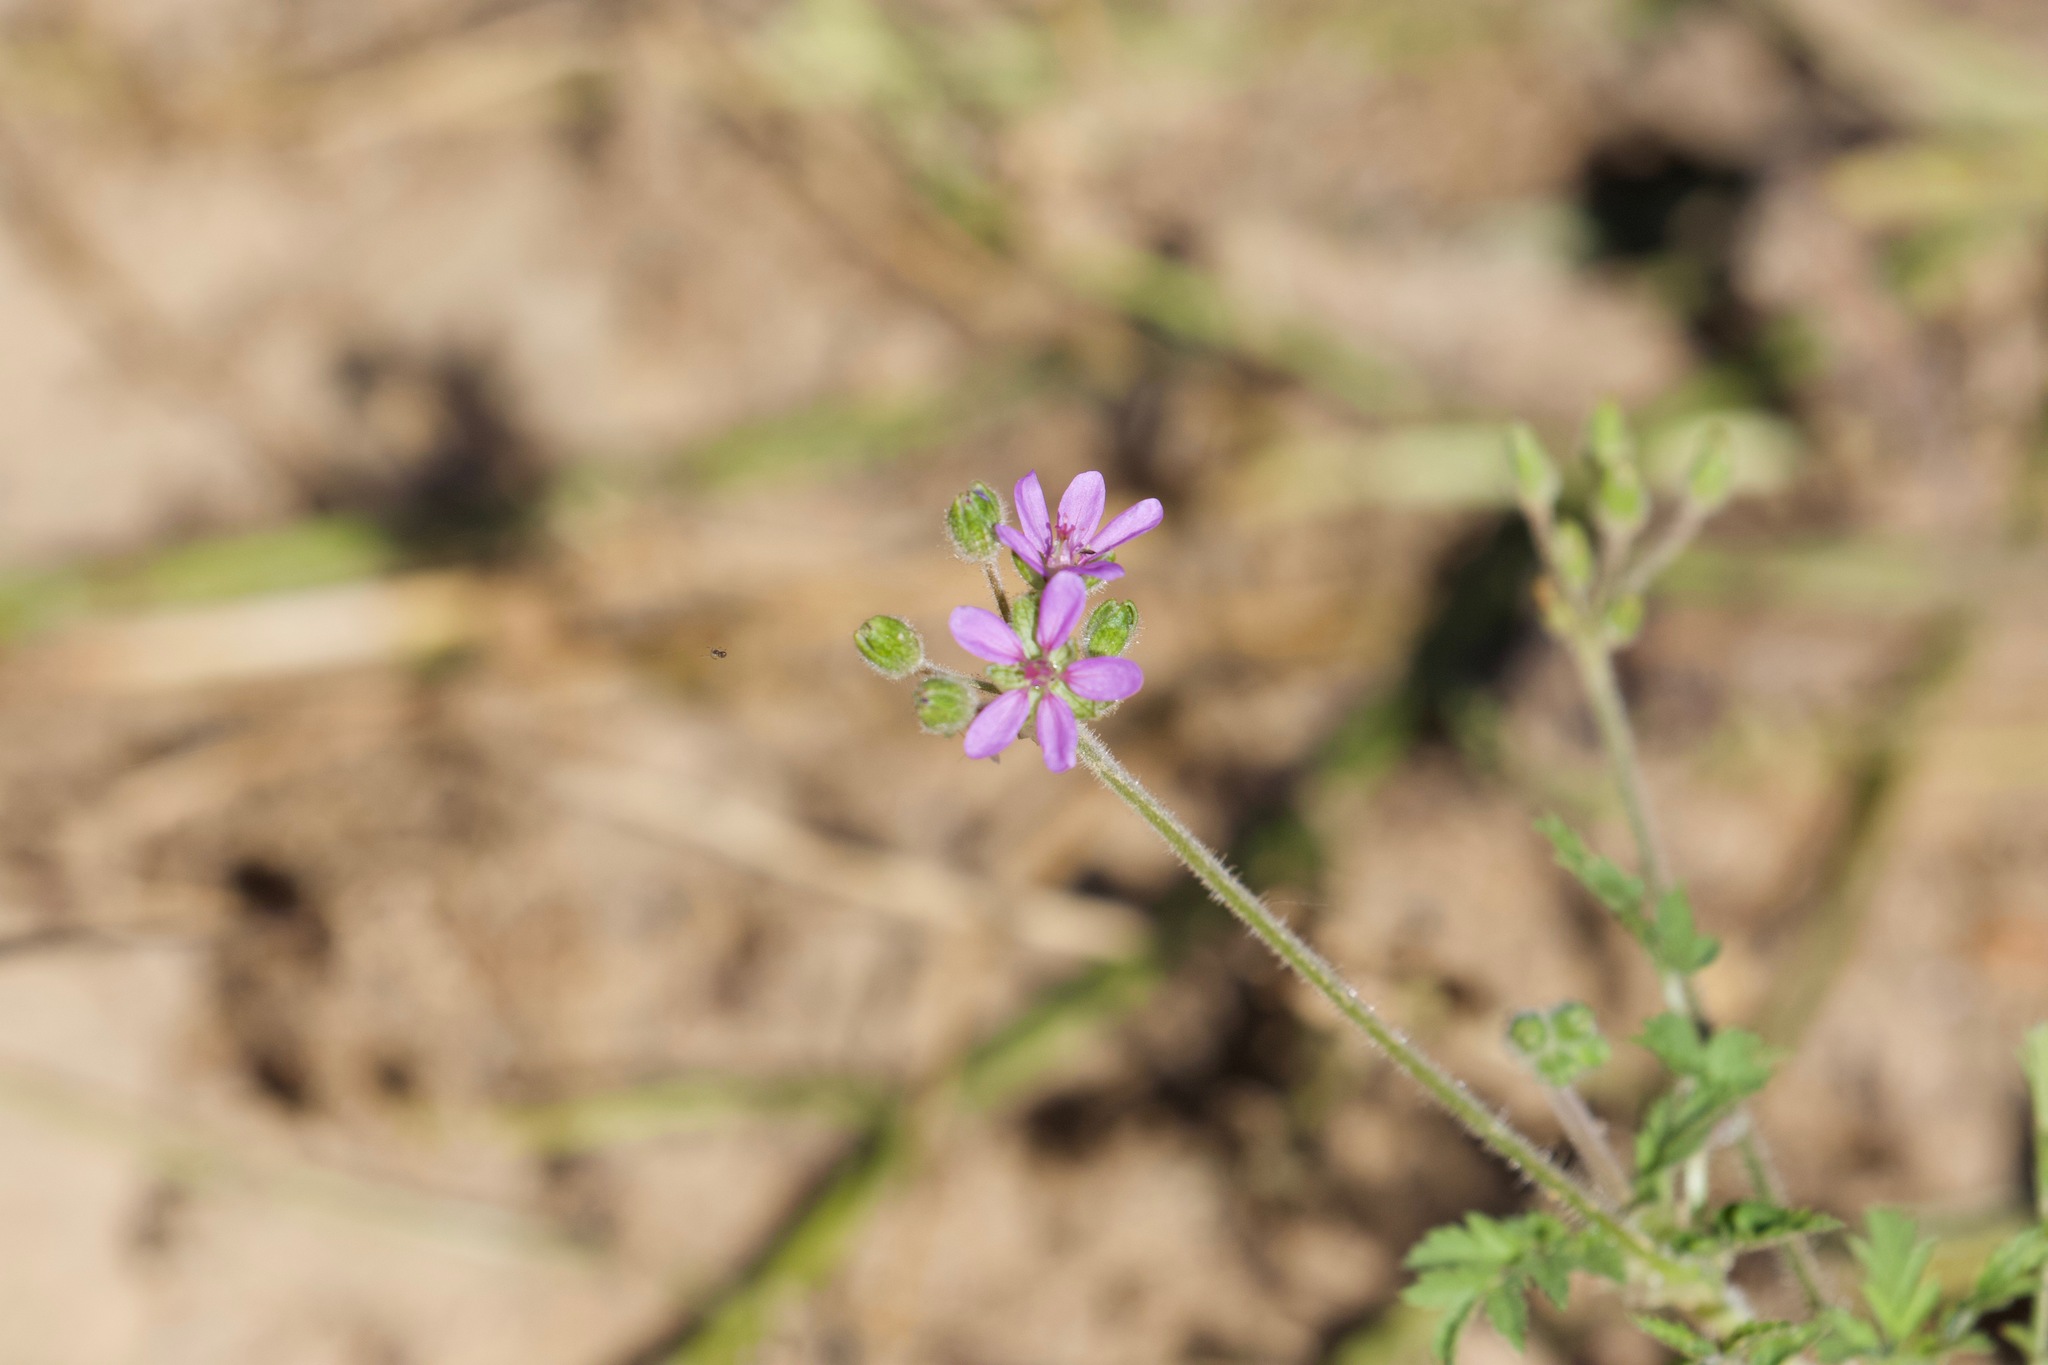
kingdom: Plantae
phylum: Tracheophyta
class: Magnoliopsida
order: Geraniales
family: Geraniaceae
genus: Erodium
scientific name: Erodium cicutarium
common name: Common stork's-bill
